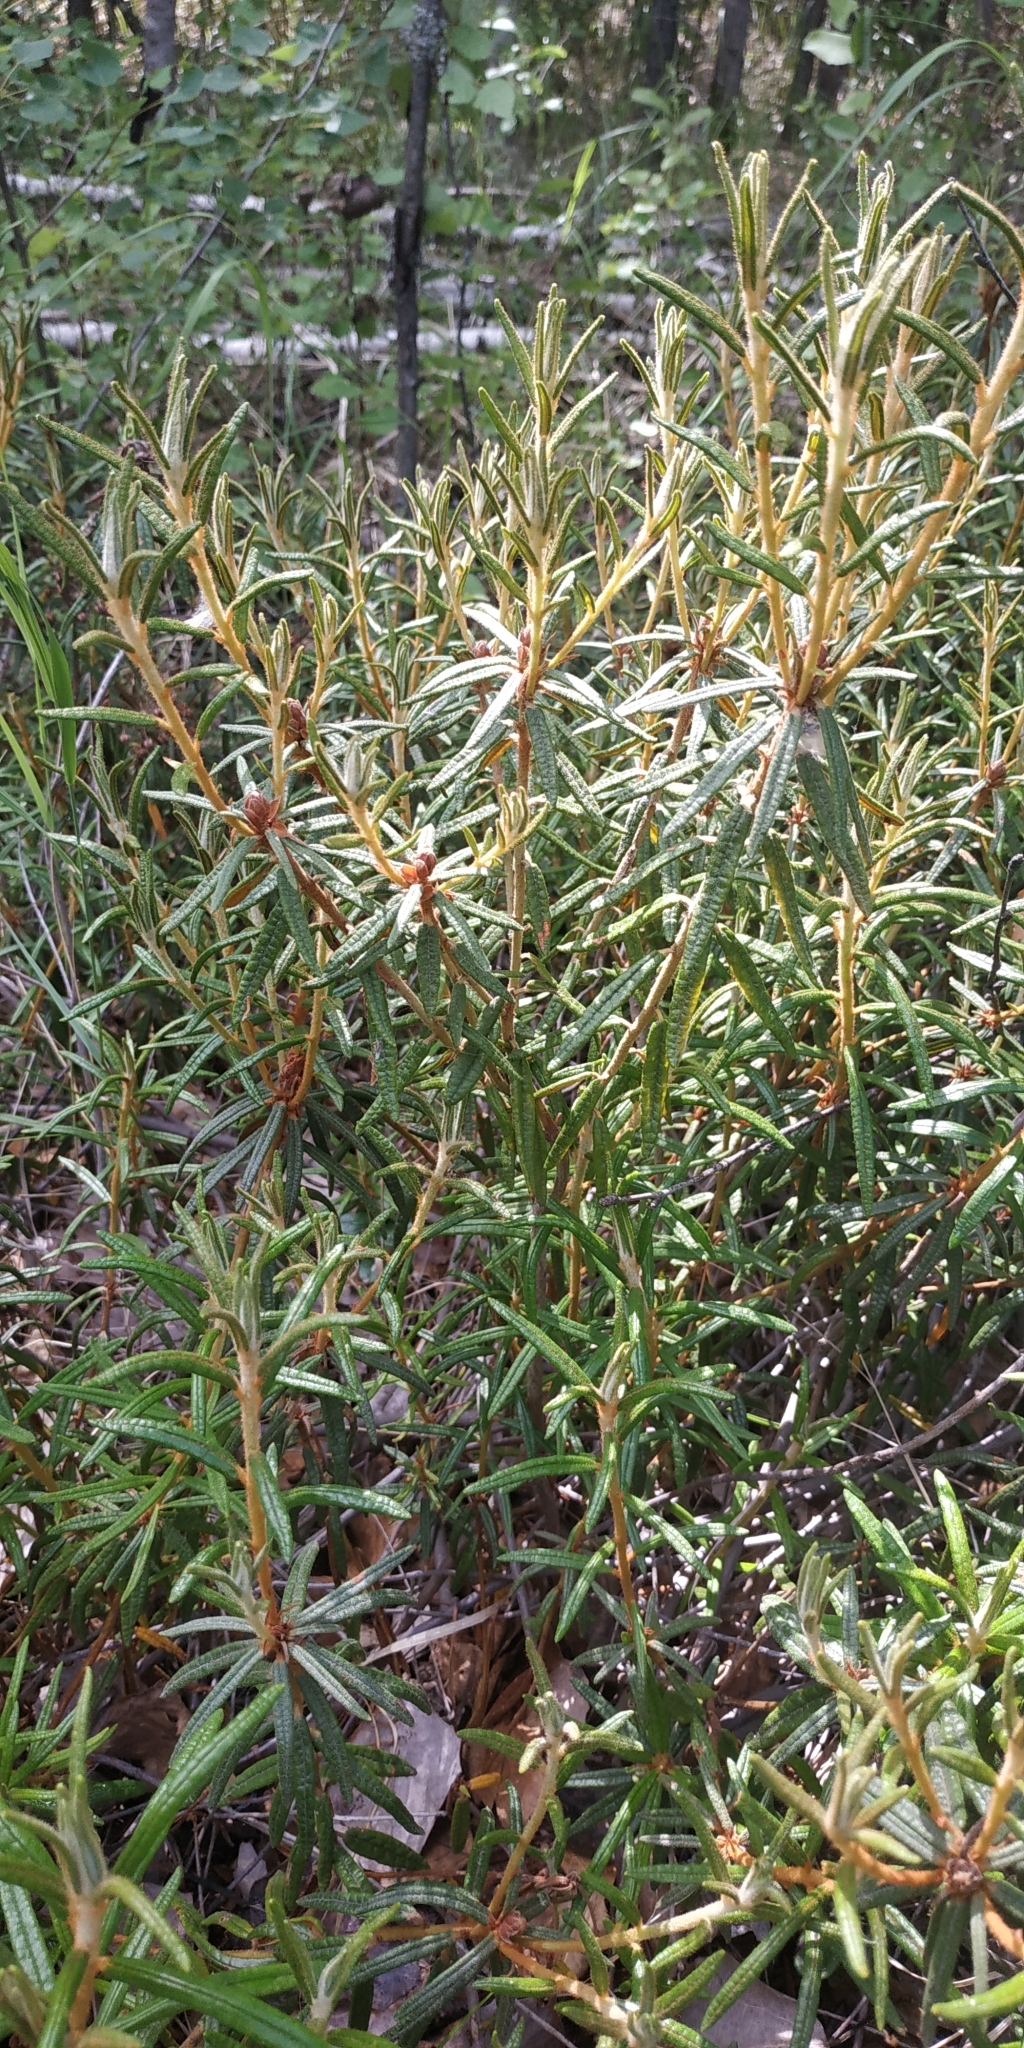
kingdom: Plantae
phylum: Tracheophyta
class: Magnoliopsida
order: Ericales
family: Ericaceae
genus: Rhododendron
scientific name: Rhododendron tomentosum
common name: Marsh labrador tea
